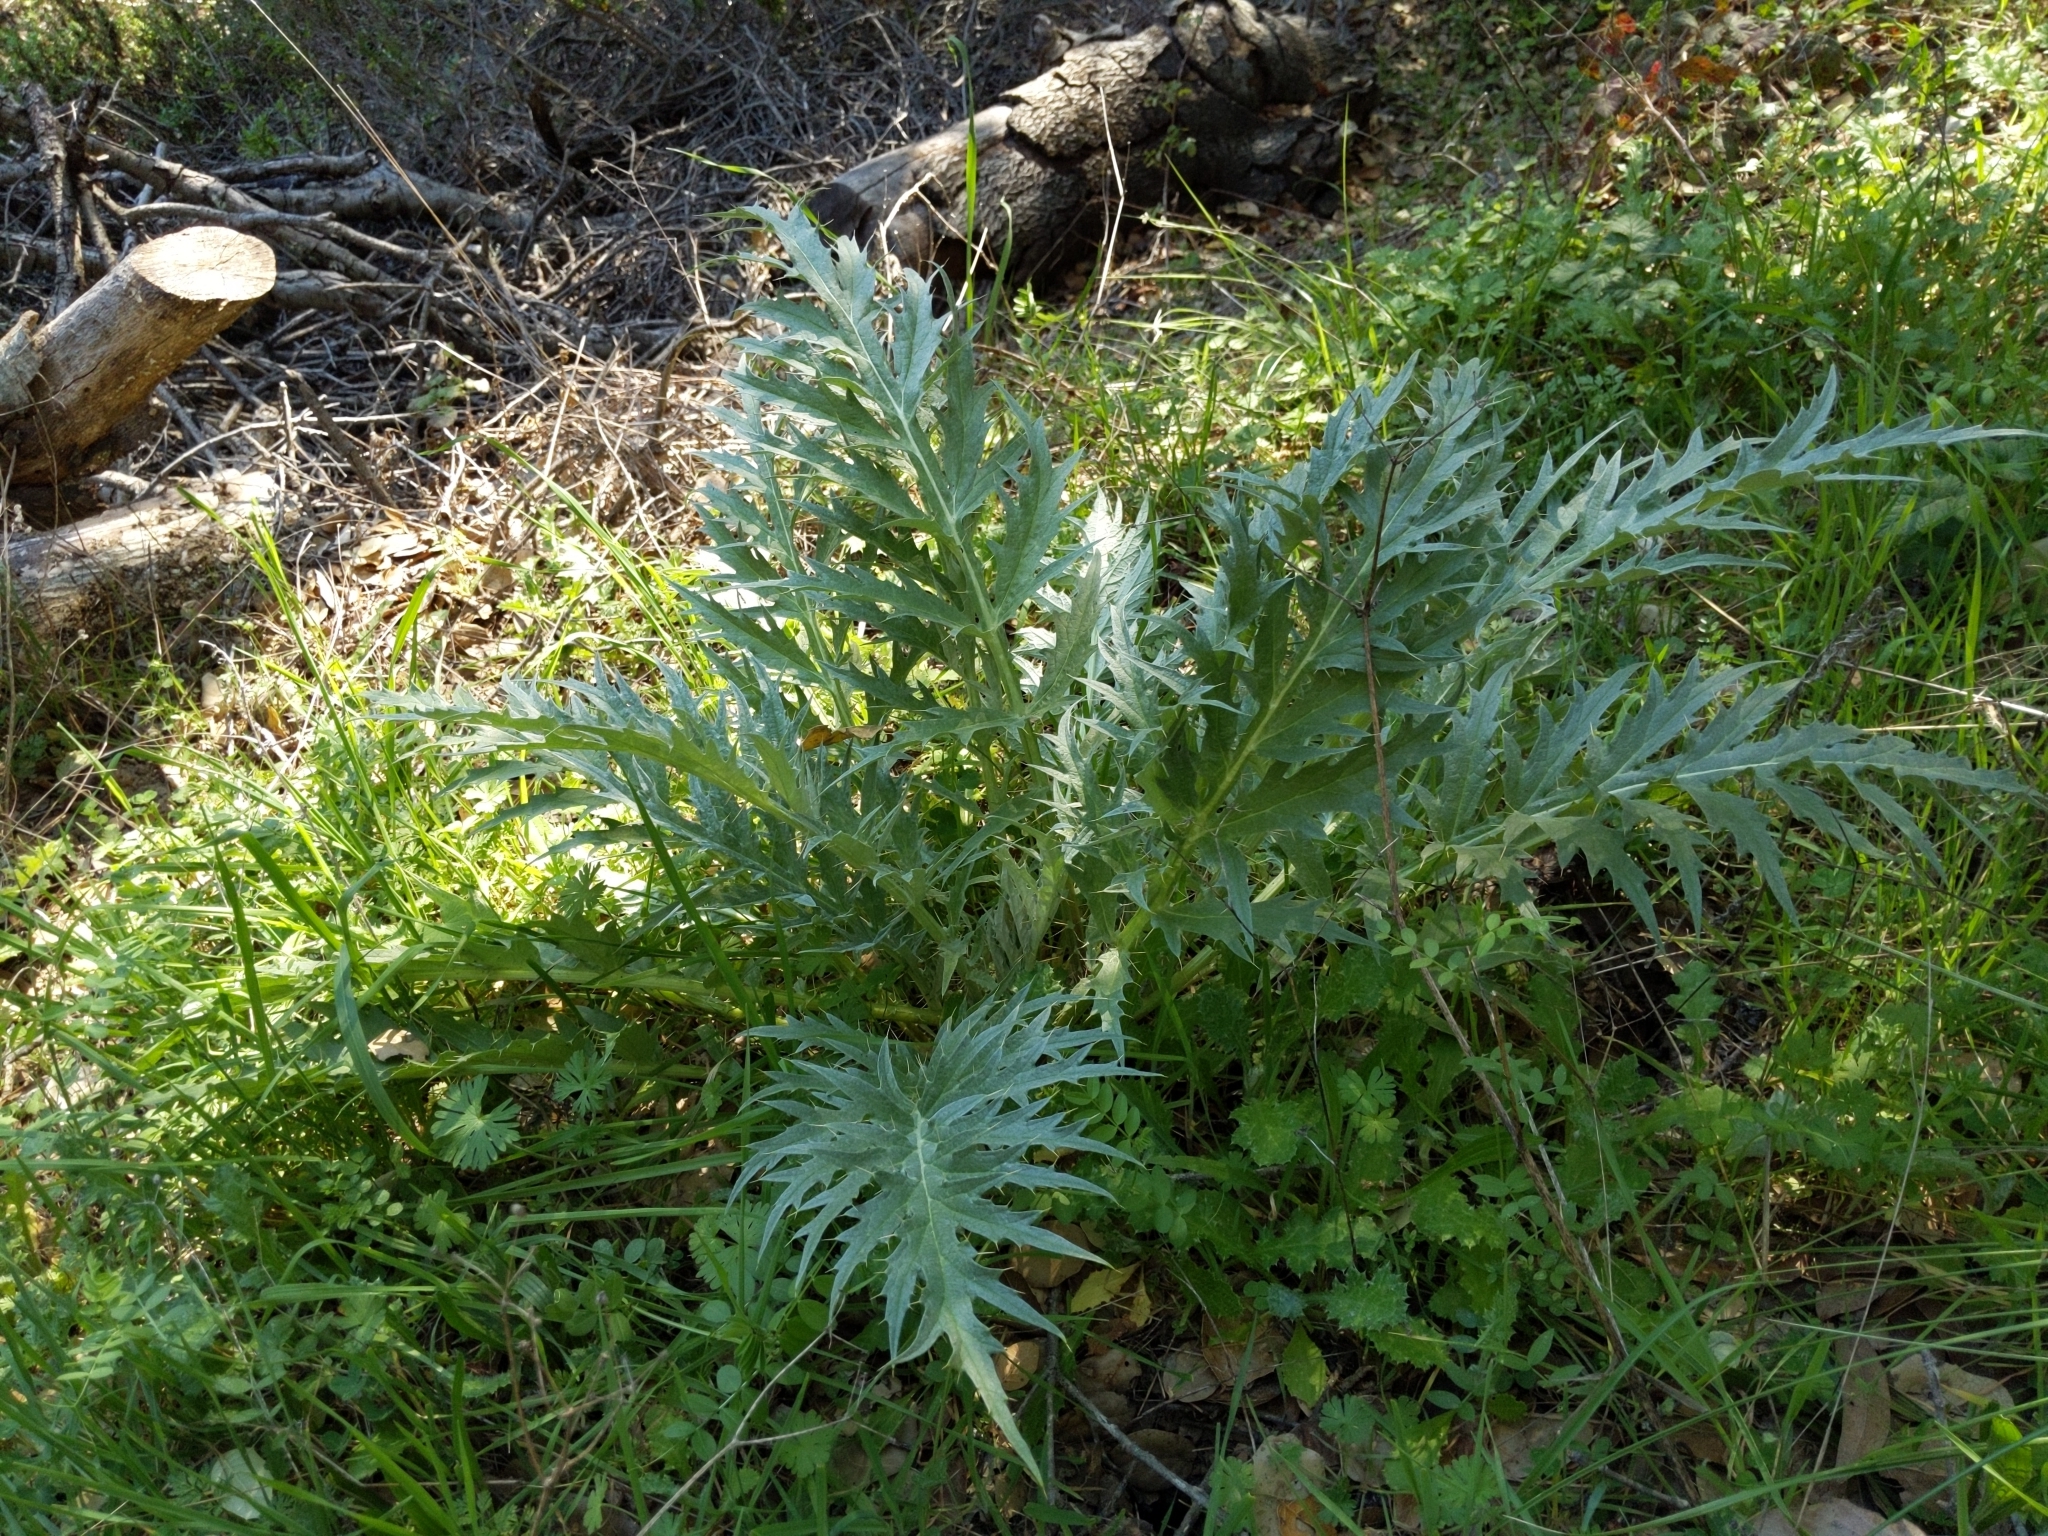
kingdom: Plantae
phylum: Tracheophyta
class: Magnoliopsida
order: Asterales
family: Asteraceae
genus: Cynara
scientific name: Cynara cardunculus
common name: Globe artichoke
